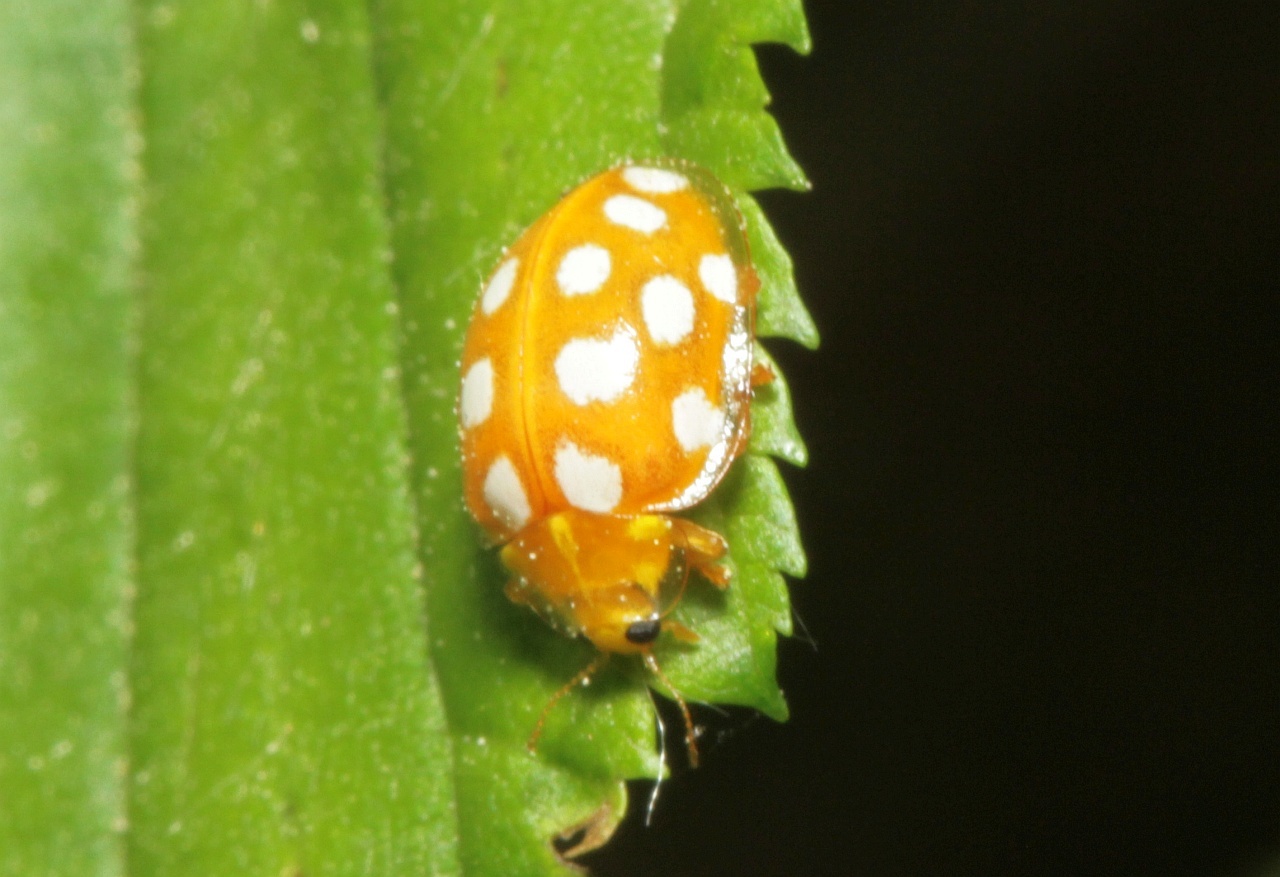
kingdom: Animalia
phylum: Arthropoda
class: Insecta
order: Coleoptera
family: Coccinellidae
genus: Halyzia
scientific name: Halyzia sedecimguttata
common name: Orange ladybird
